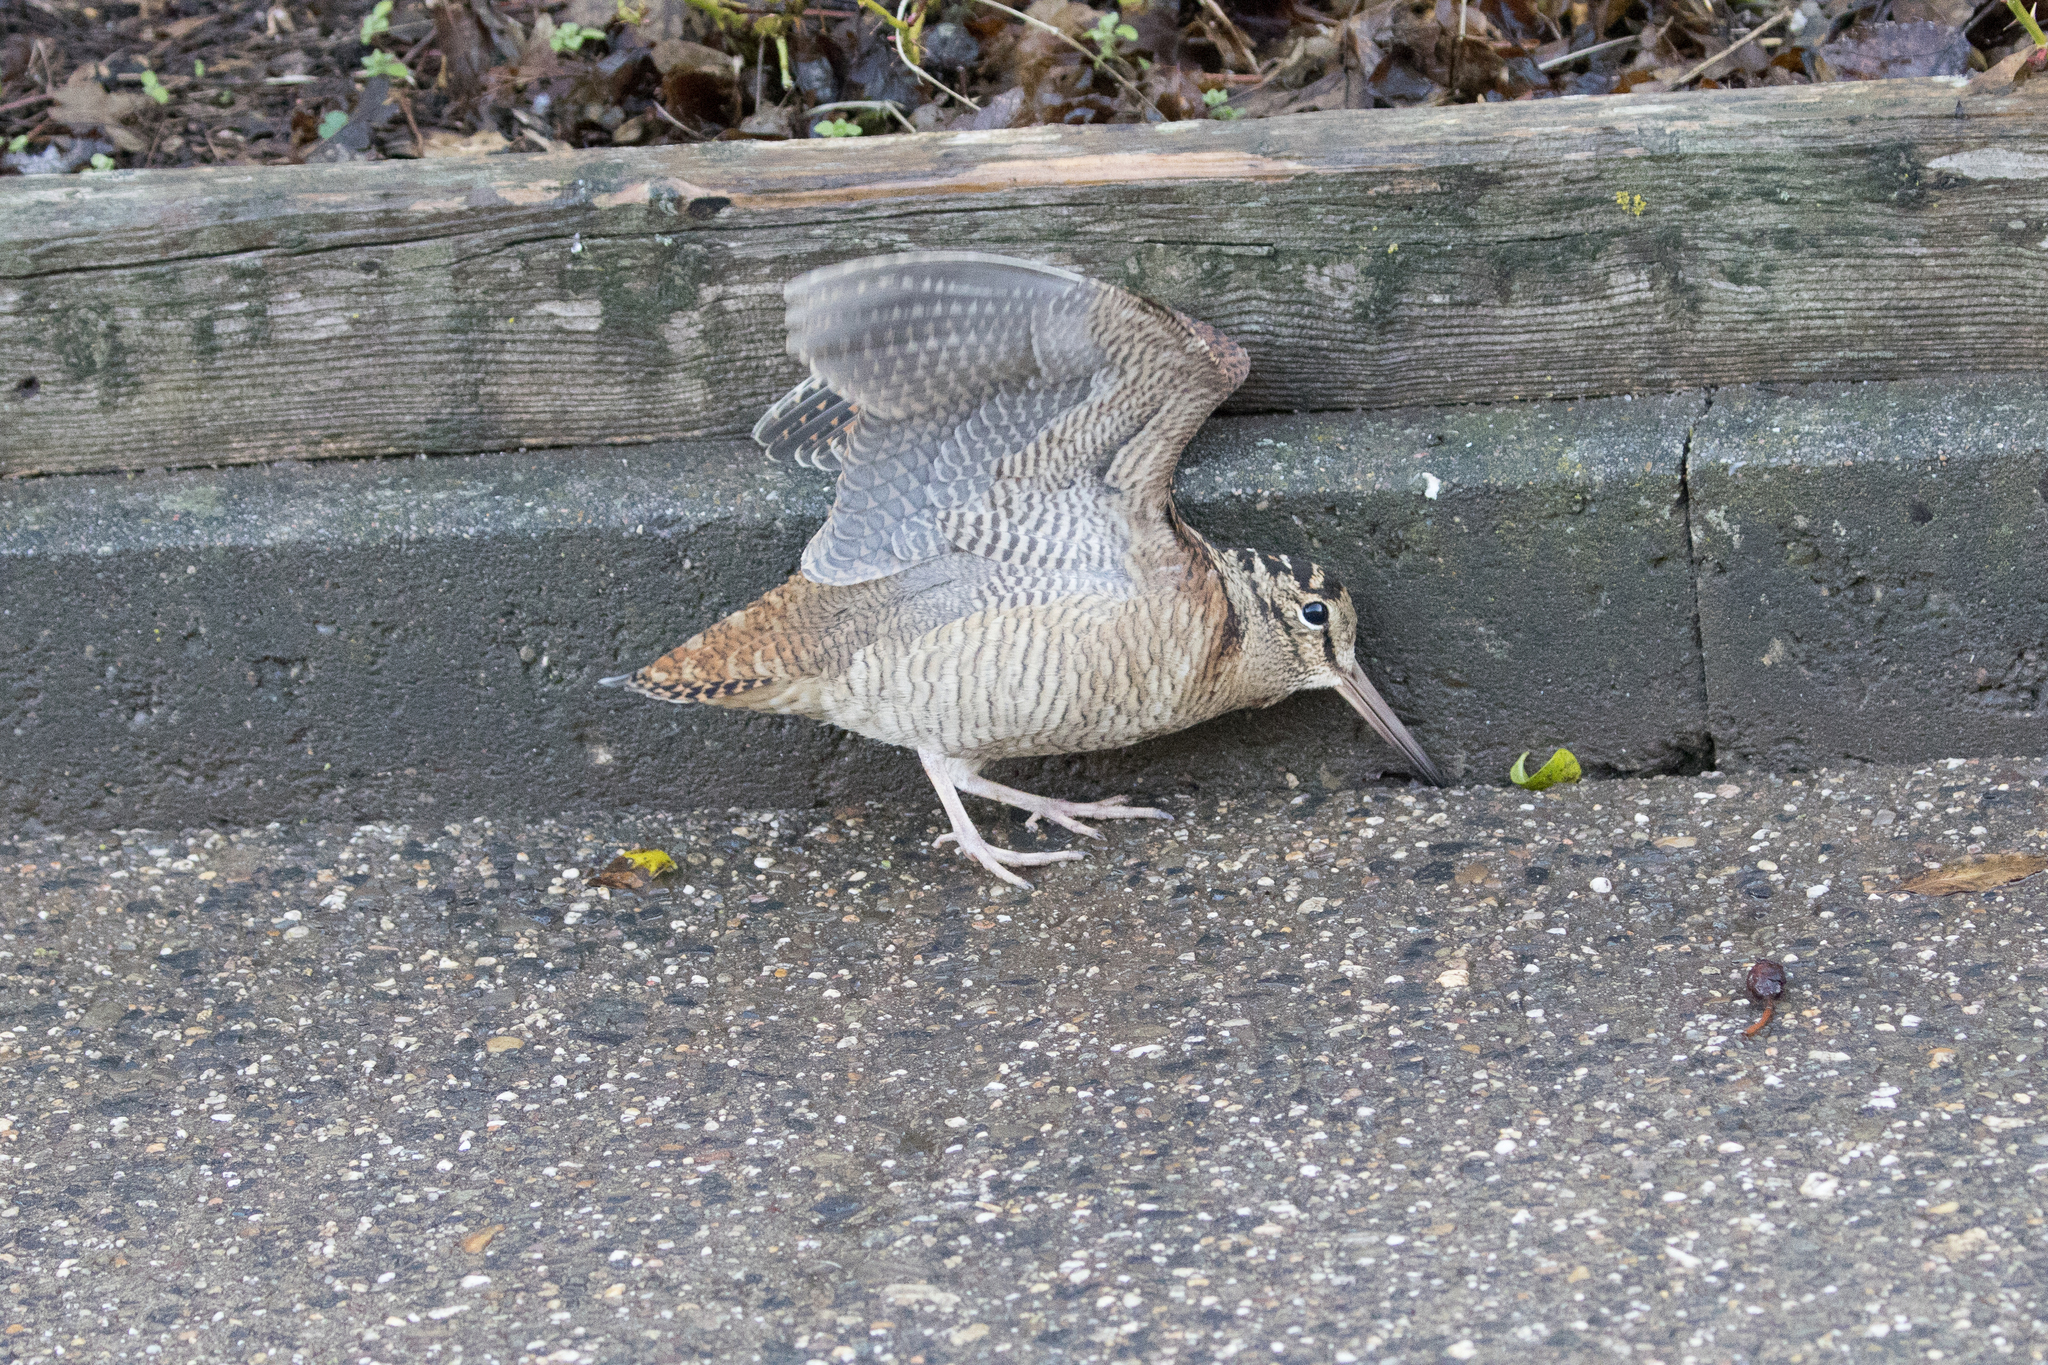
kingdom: Animalia
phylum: Chordata
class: Aves
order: Charadriiformes
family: Scolopacidae
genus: Scolopax
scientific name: Scolopax rusticola
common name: Eurasian woodcock
